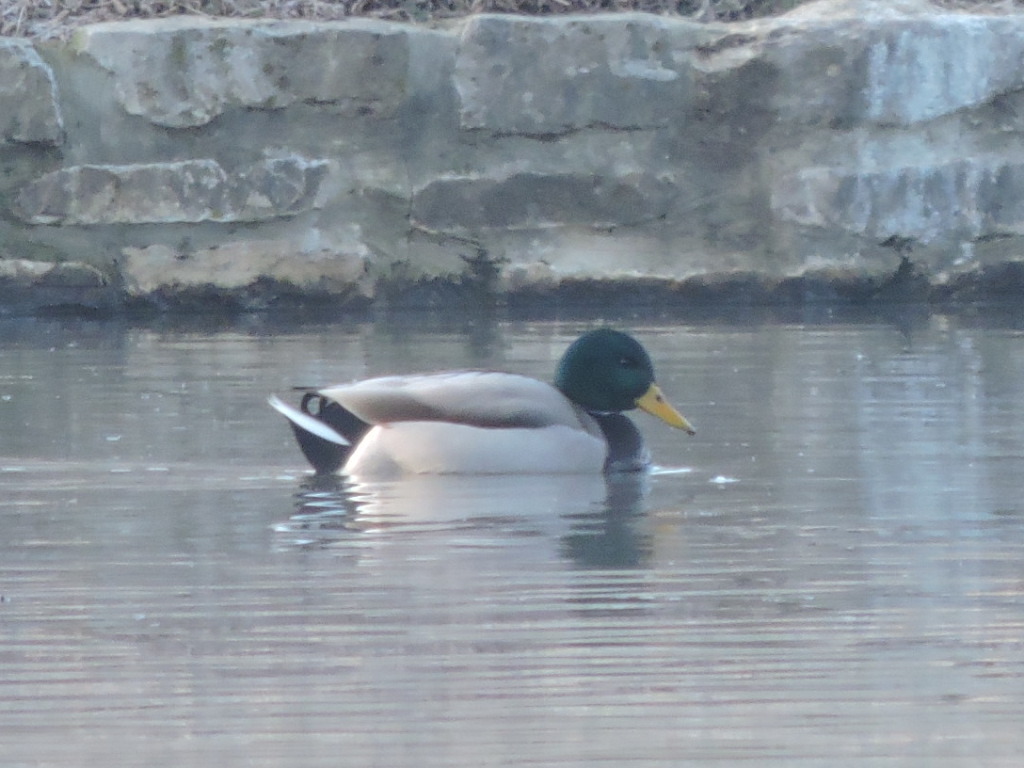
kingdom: Animalia
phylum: Chordata
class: Aves
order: Anseriformes
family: Anatidae
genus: Anas
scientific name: Anas platyrhynchos
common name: Mallard
